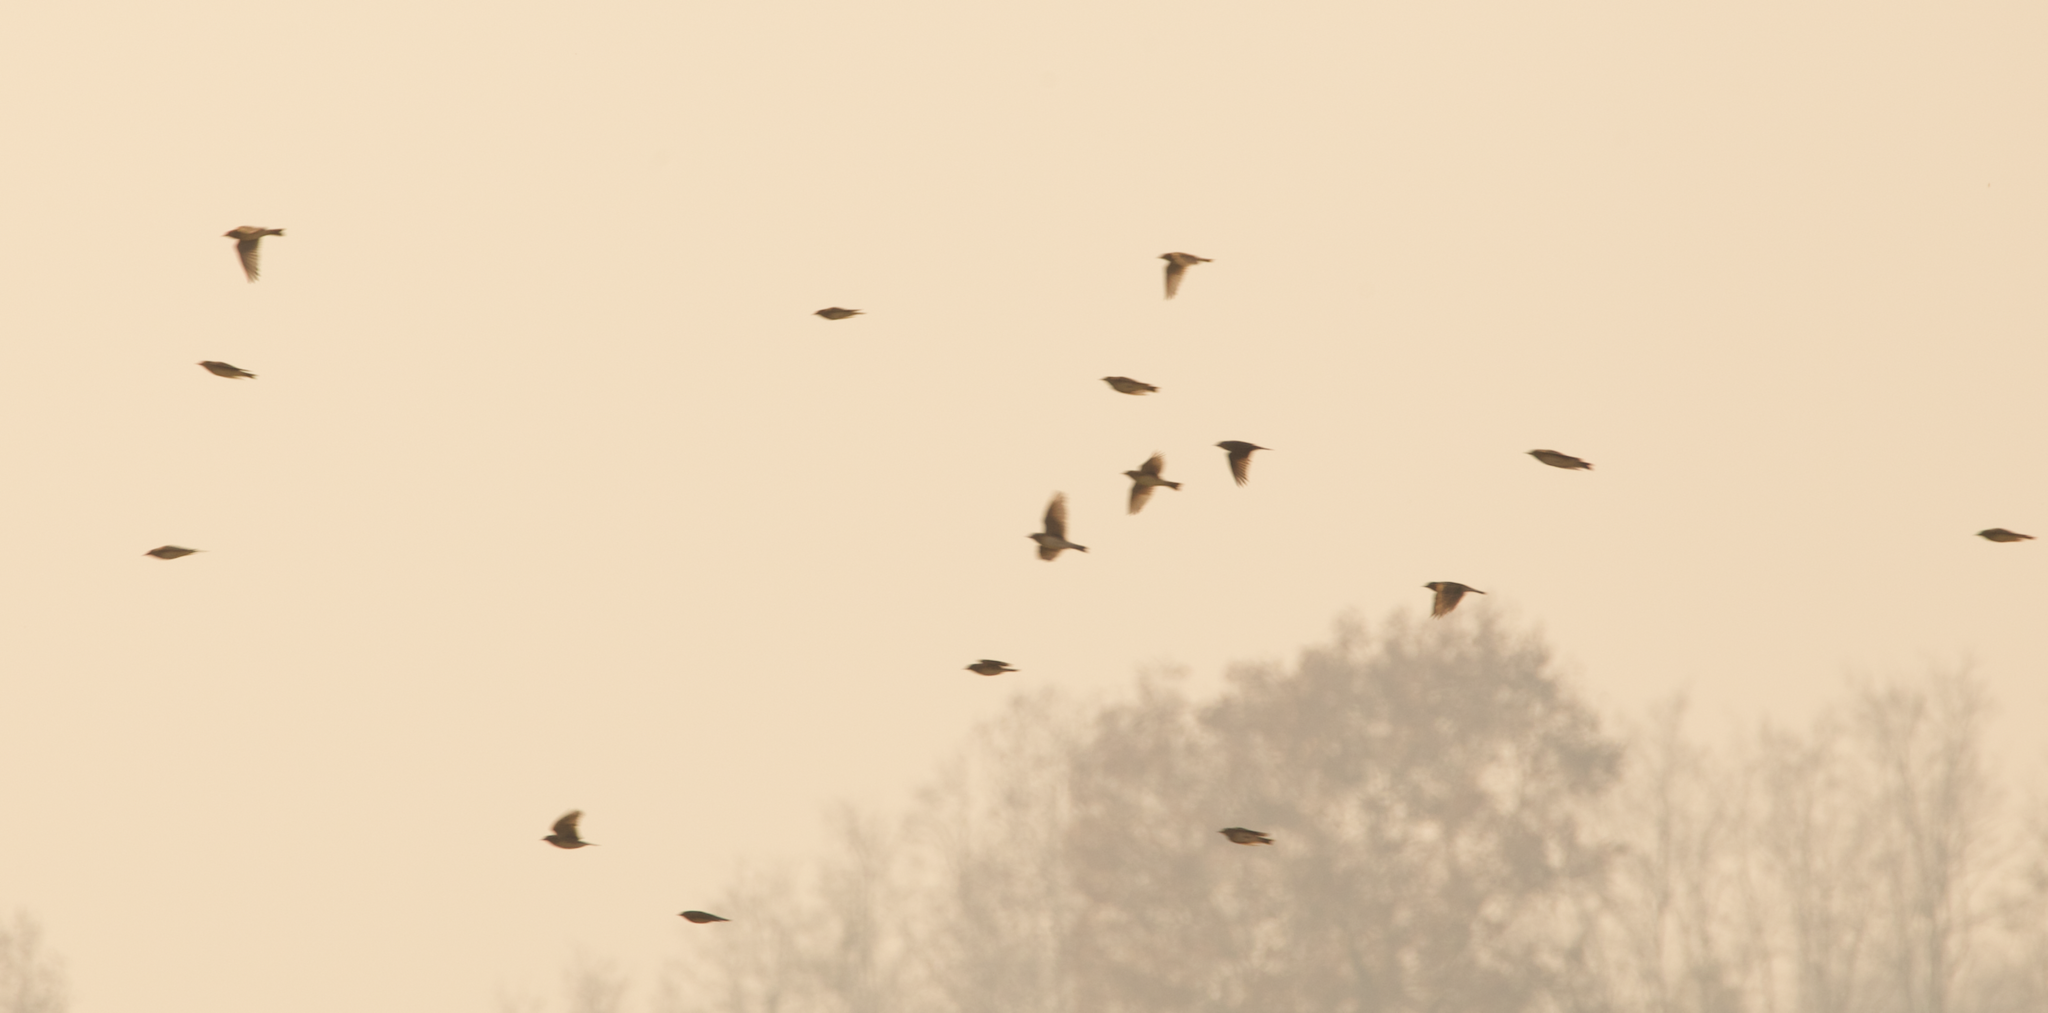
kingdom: Animalia
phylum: Chordata
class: Aves
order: Passeriformes
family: Alaudidae
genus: Alauda
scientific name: Alauda arvensis
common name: Eurasian skylark
